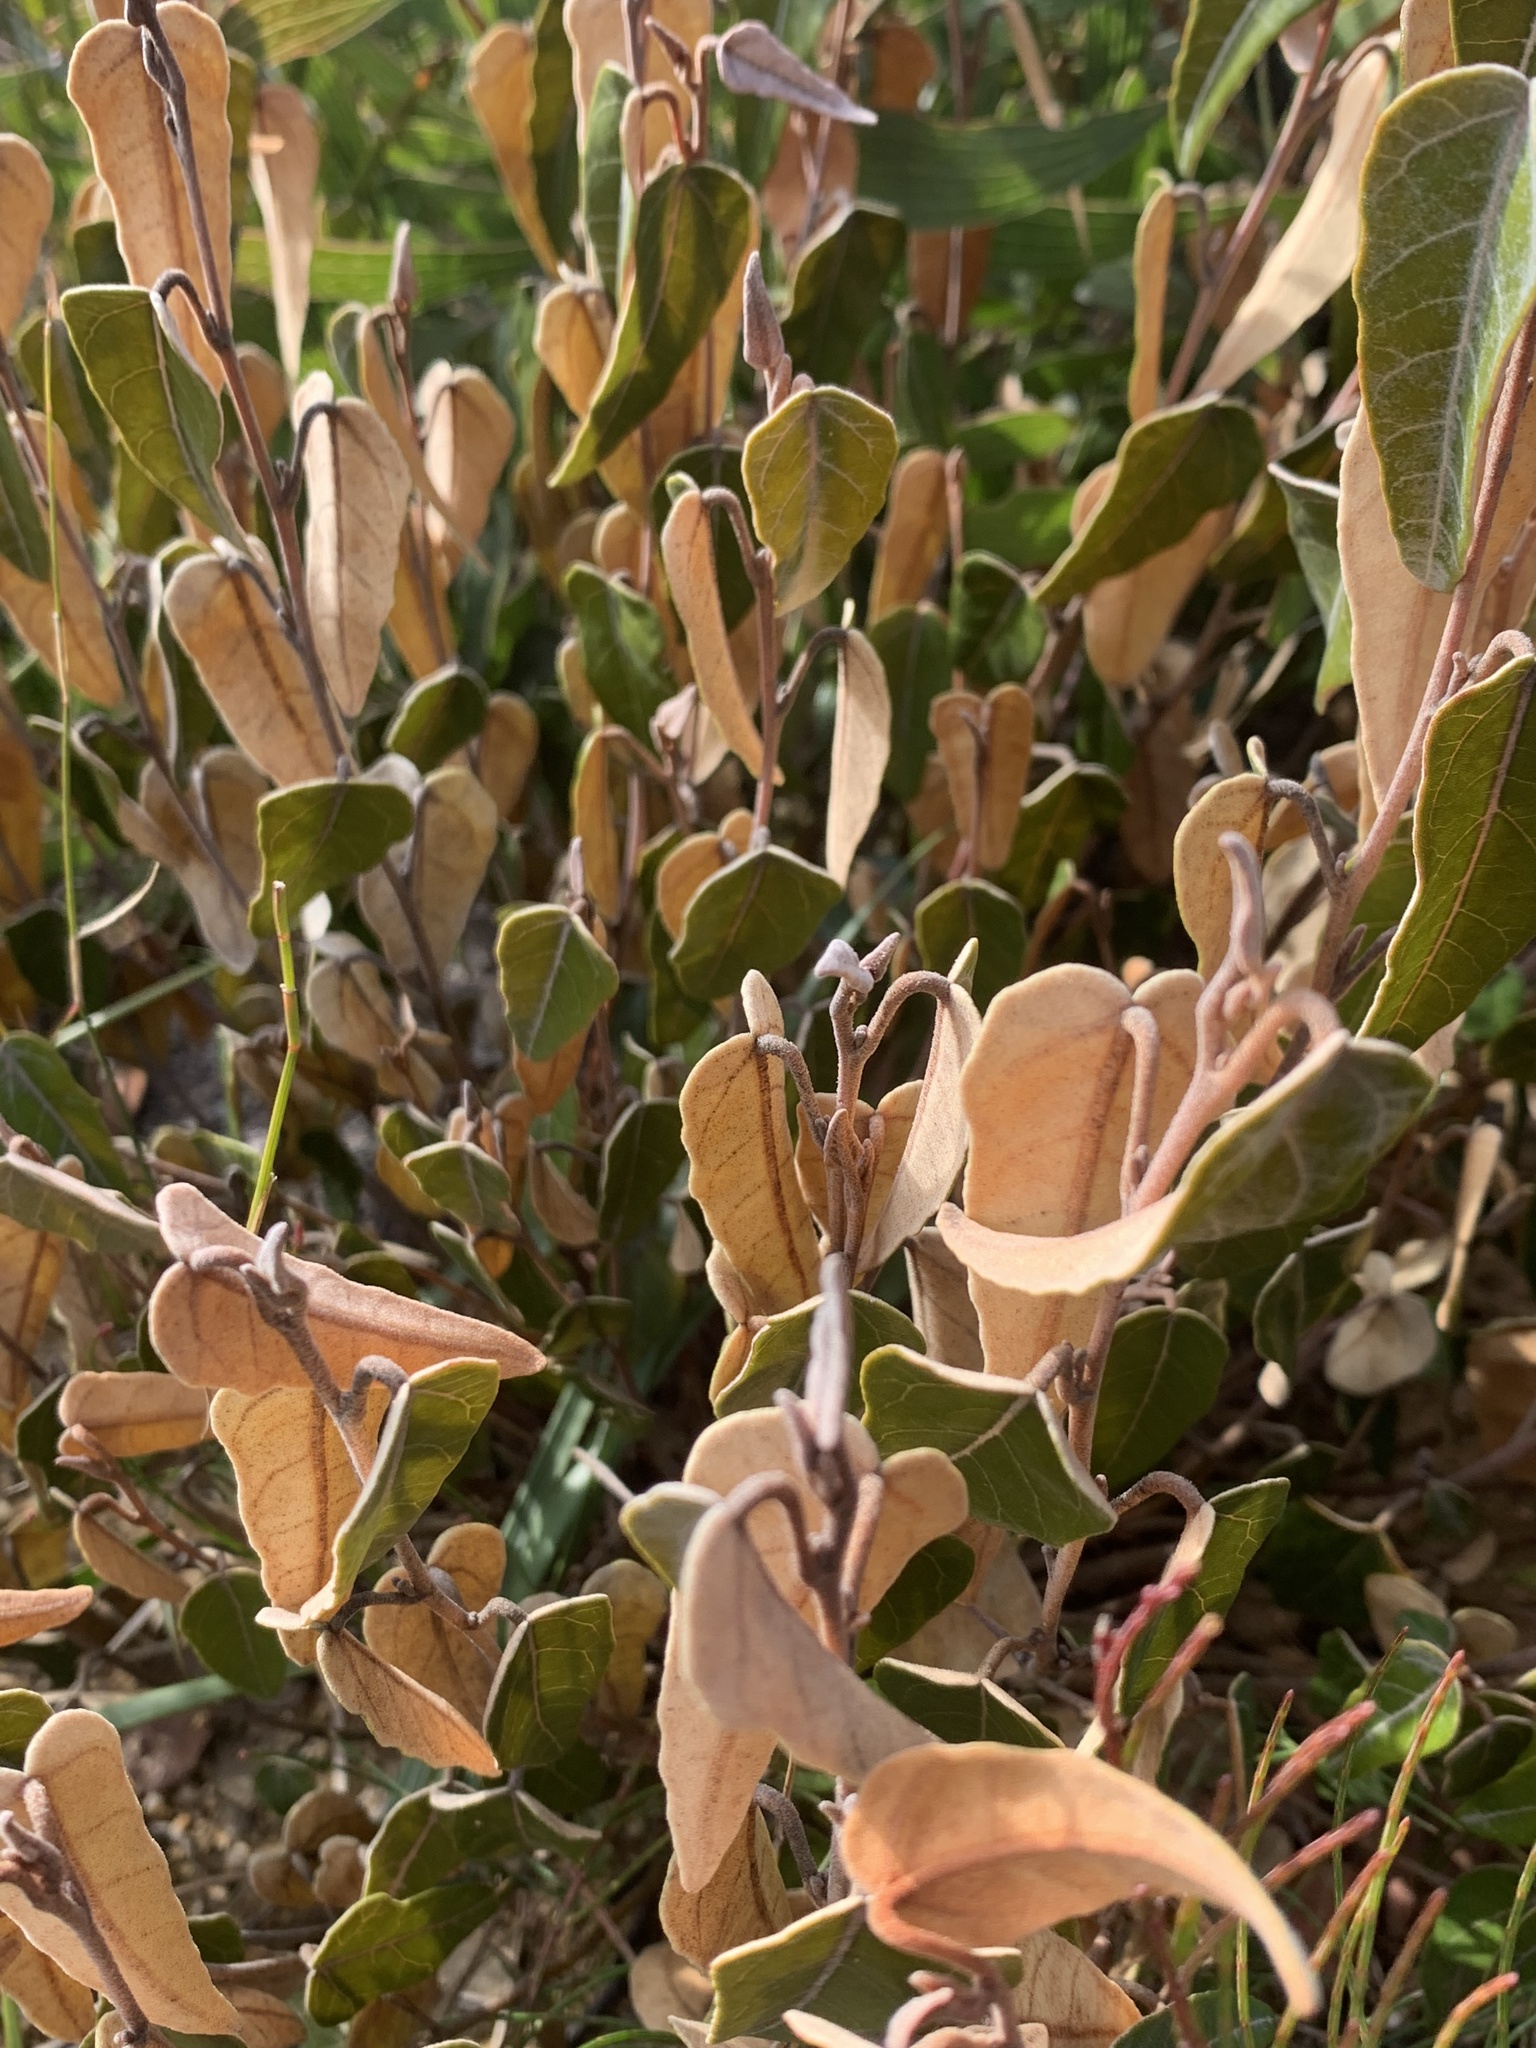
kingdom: Plantae
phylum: Tracheophyta
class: Magnoliopsida
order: Malvales
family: Malvaceae
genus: Lasiopetalum
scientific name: Lasiopetalum ferrugineum
